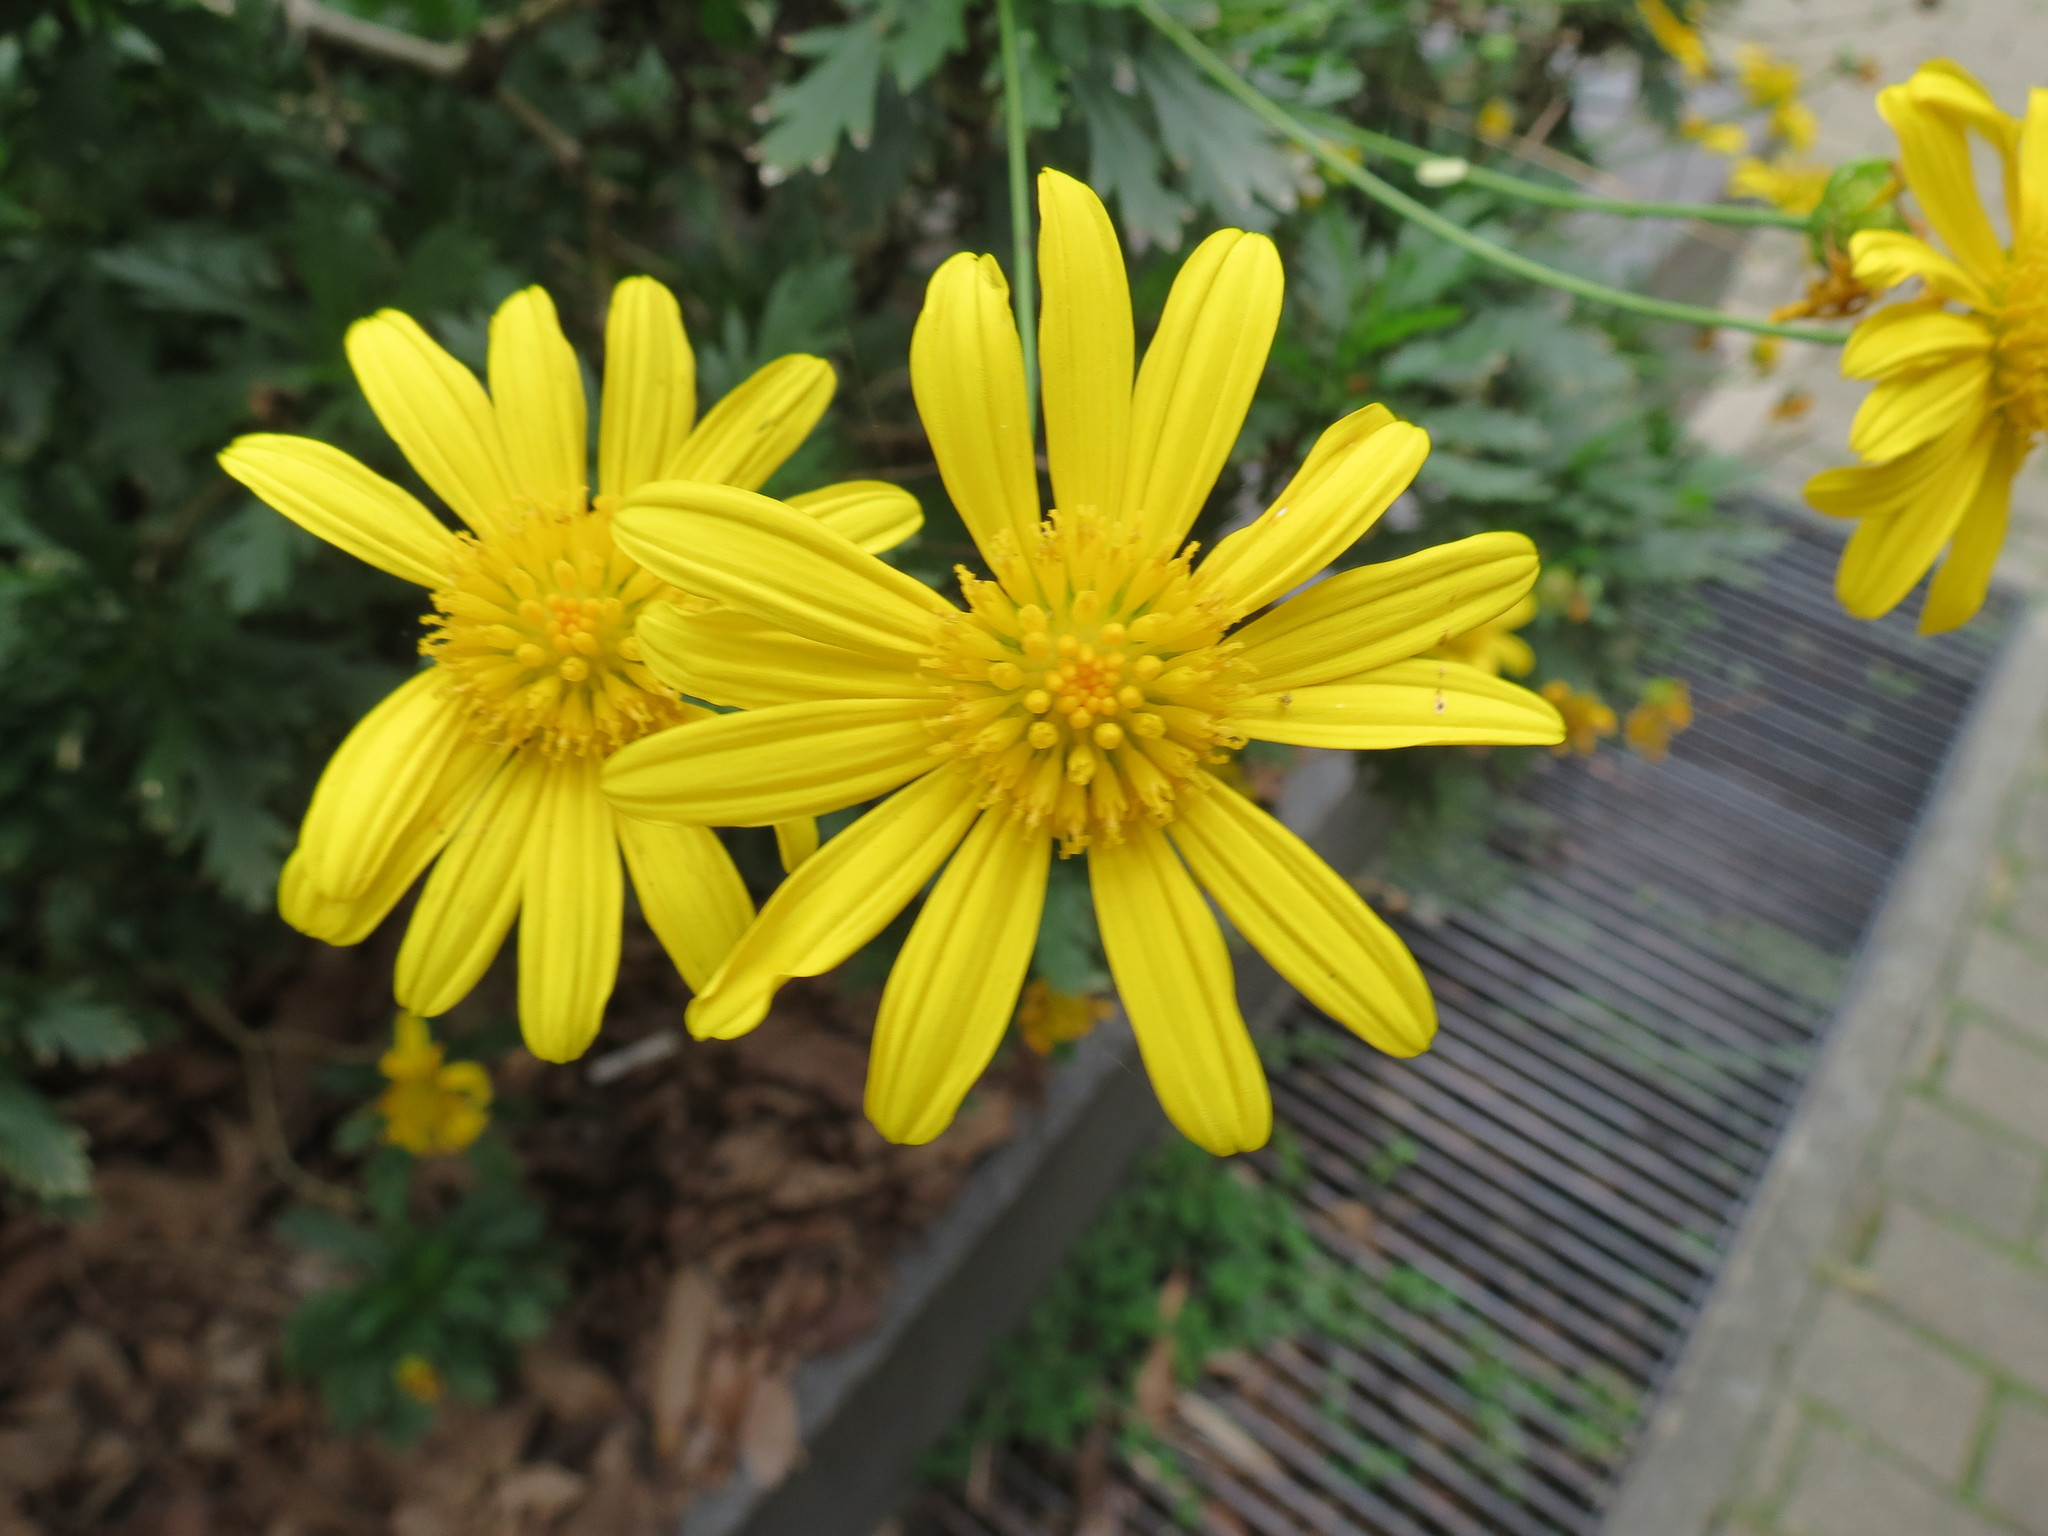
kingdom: Plantae
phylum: Tracheophyta
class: Magnoliopsida
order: Asterales
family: Asteraceae
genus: Euryops
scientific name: Euryops chrysanthemoides
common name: Bull's eye
